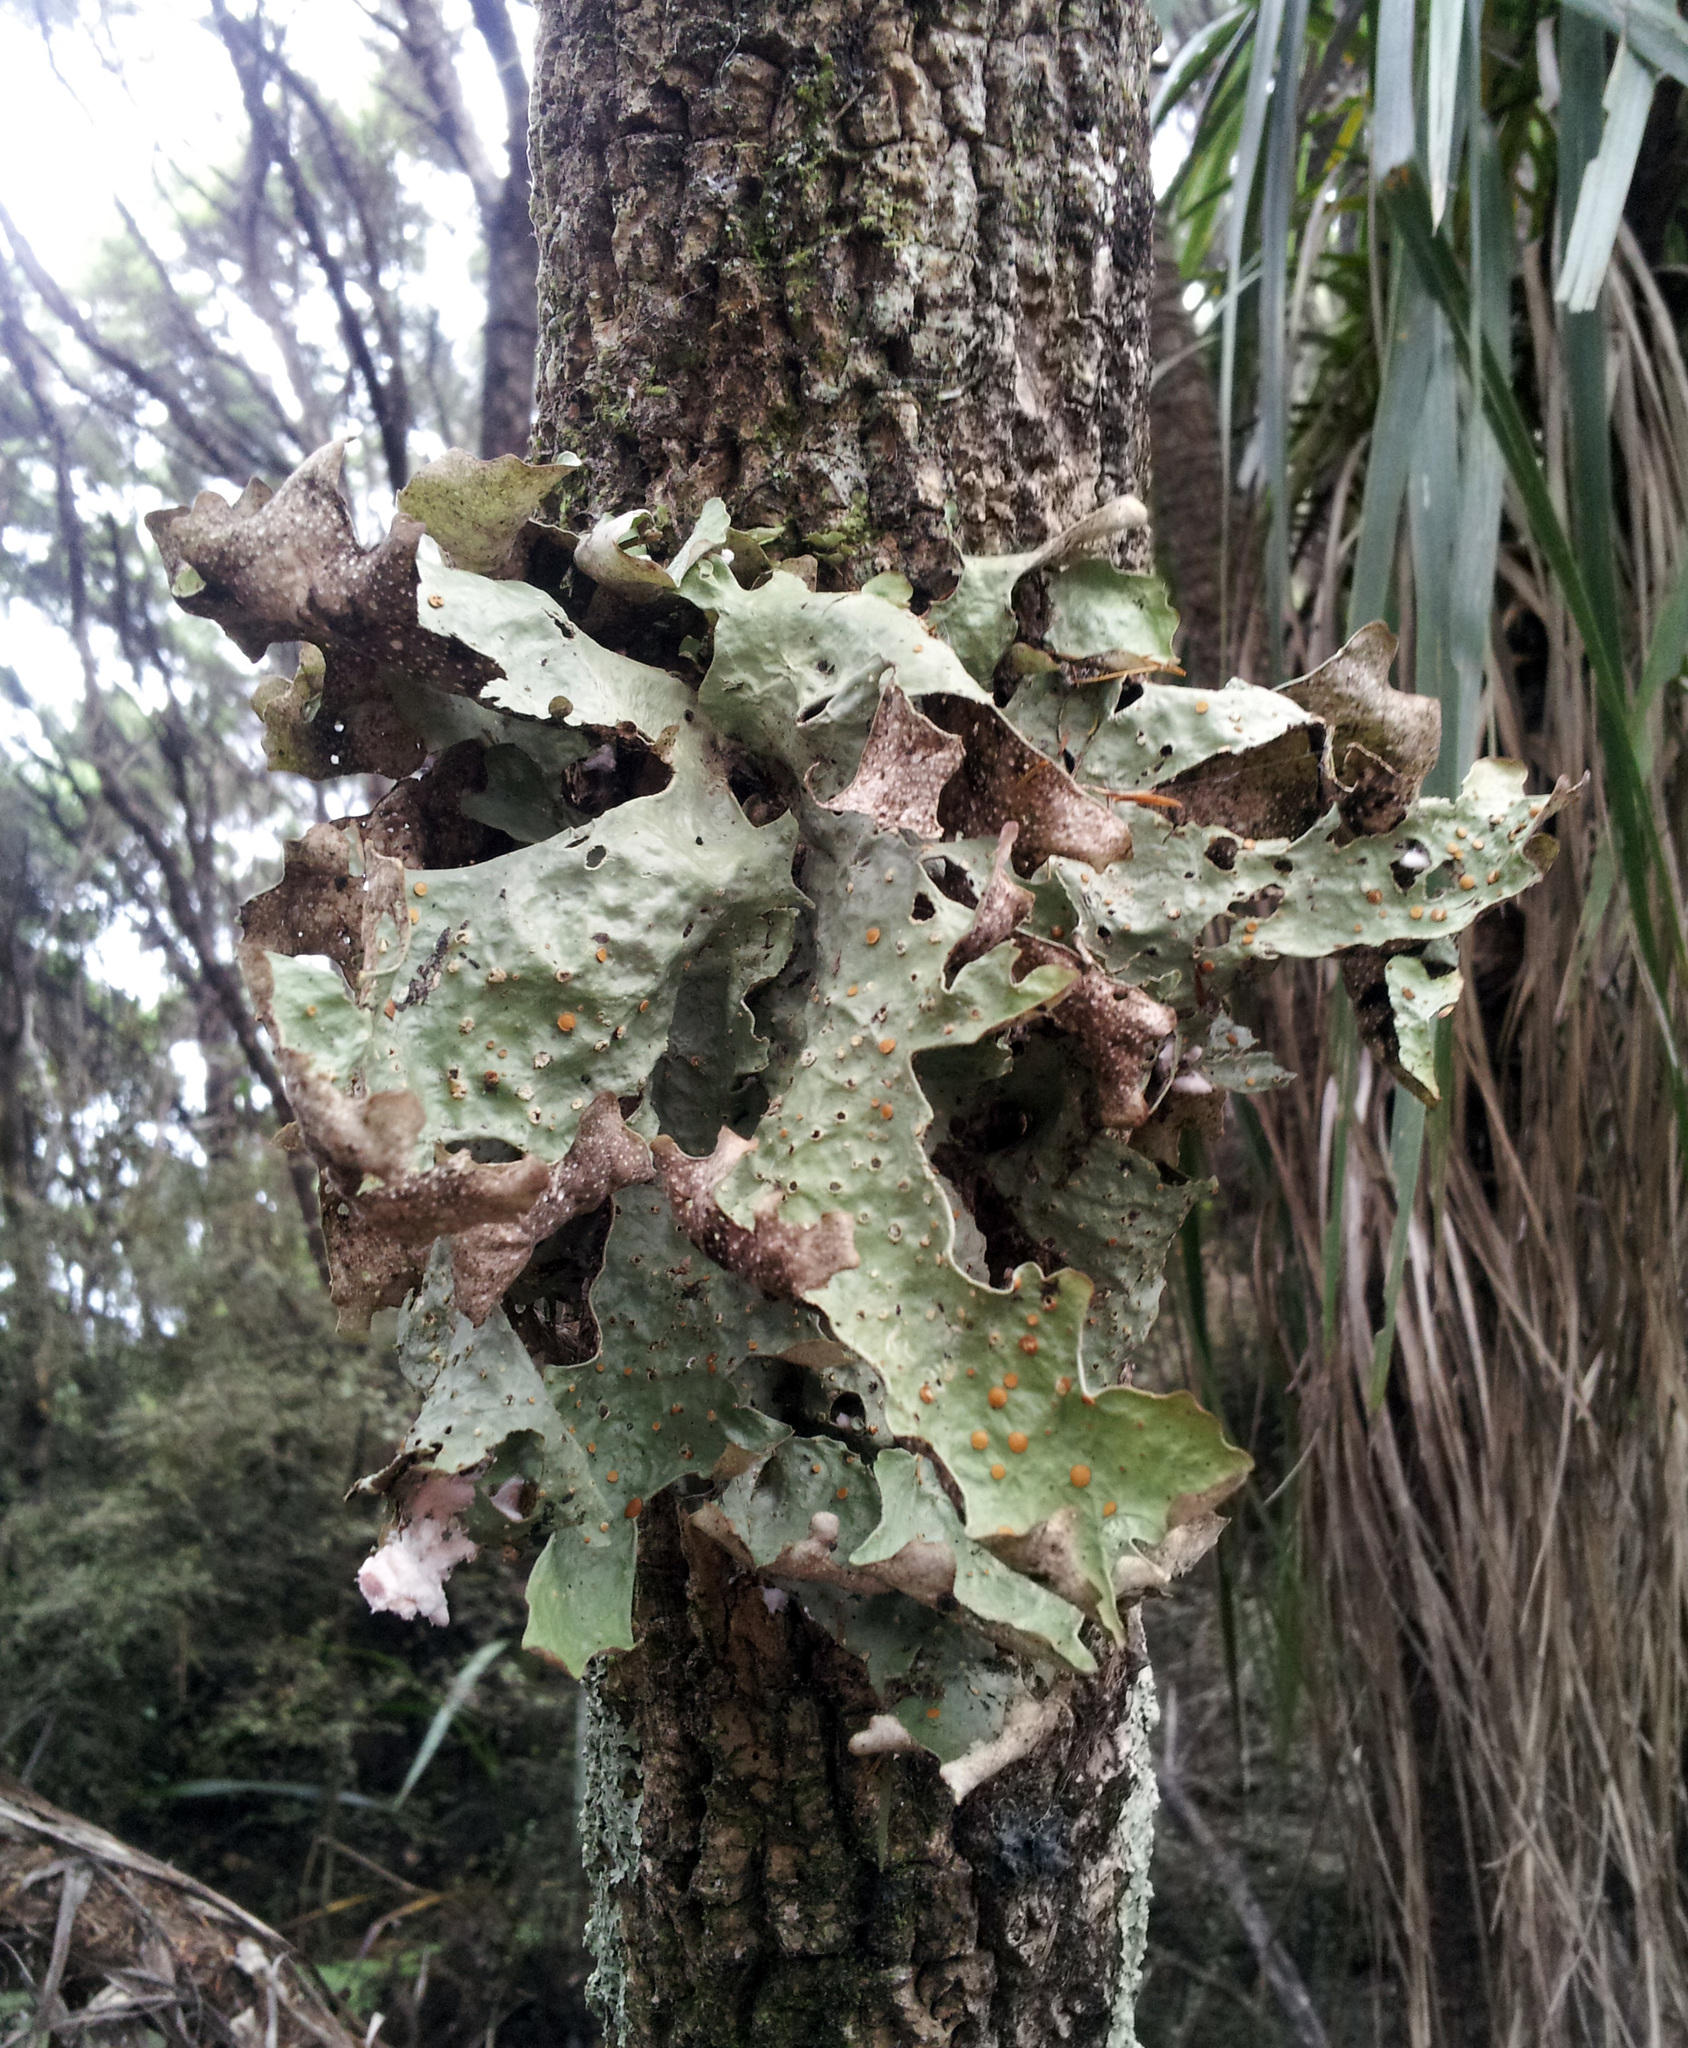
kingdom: Fungi
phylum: Ascomycota
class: Lecanoromycetes
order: Peltigerales
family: Lobariaceae
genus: Sticta
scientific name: Sticta latifrons
